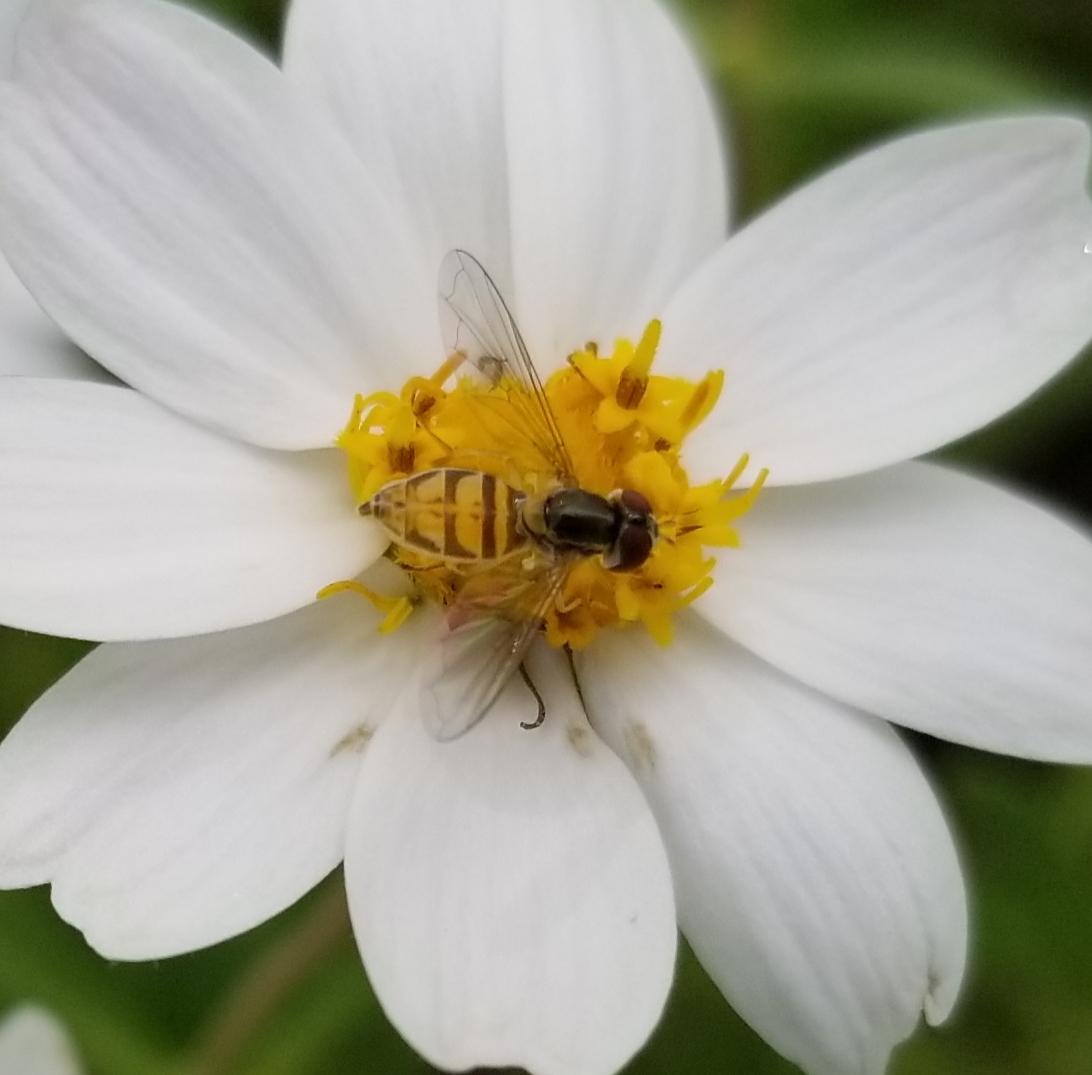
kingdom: Animalia
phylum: Arthropoda
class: Insecta
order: Diptera
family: Syrphidae
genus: Toxomerus
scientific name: Toxomerus marginatus
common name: Syrphid fly
